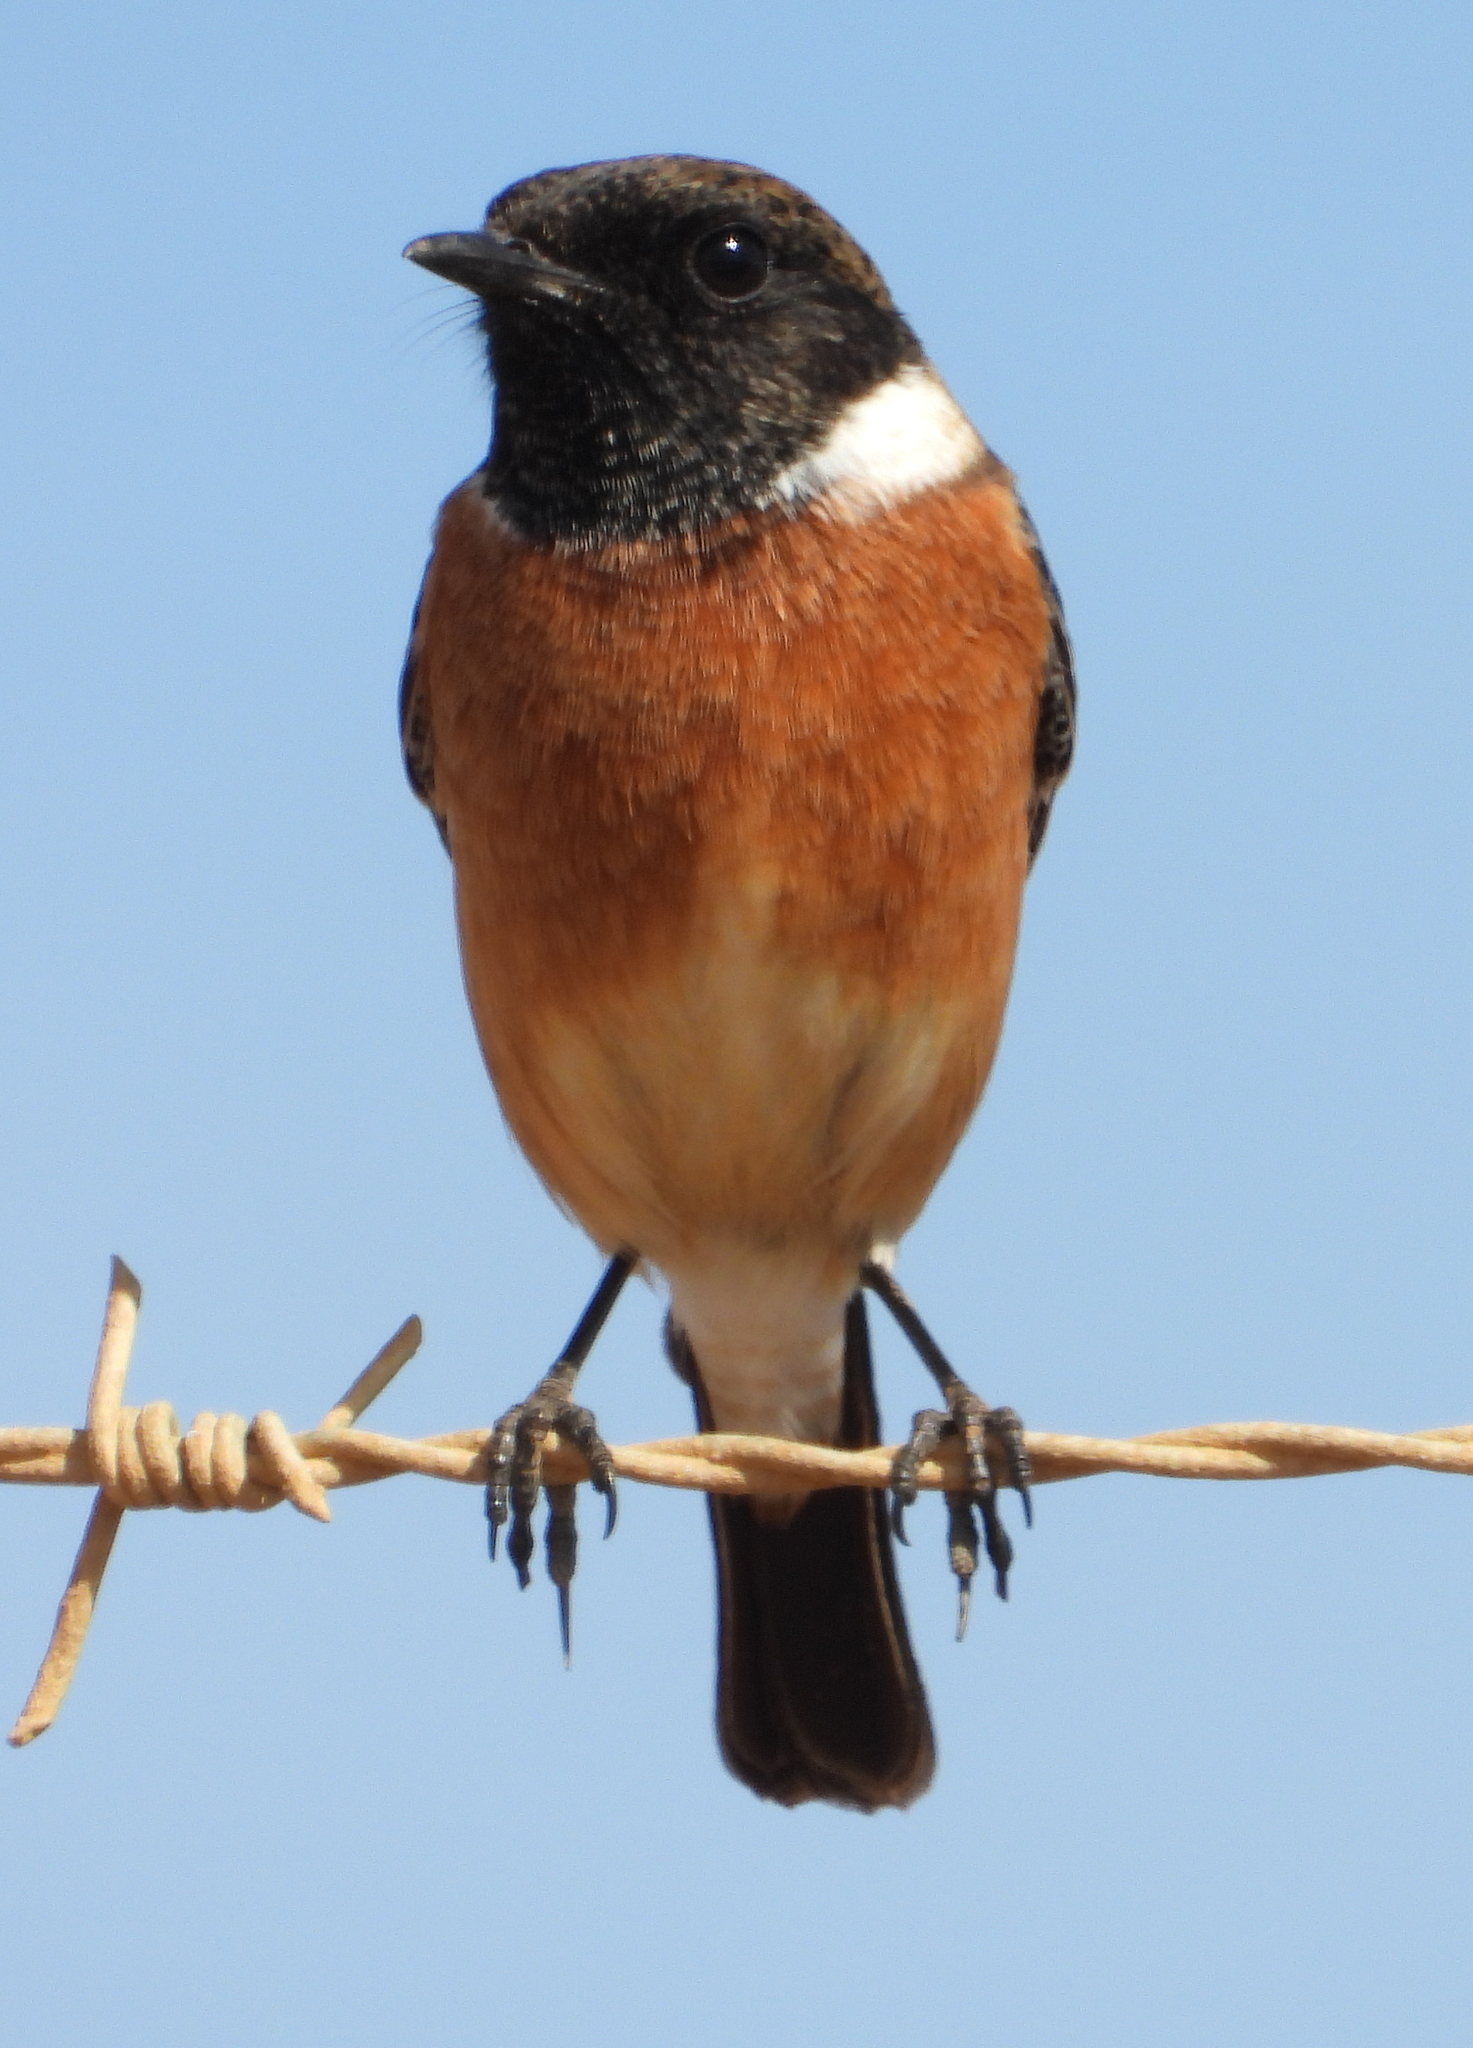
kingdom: Animalia
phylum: Chordata
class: Aves
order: Passeriformes
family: Muscicapidae
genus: Saxicola
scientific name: Saxicola torquatus
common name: African stonechat
